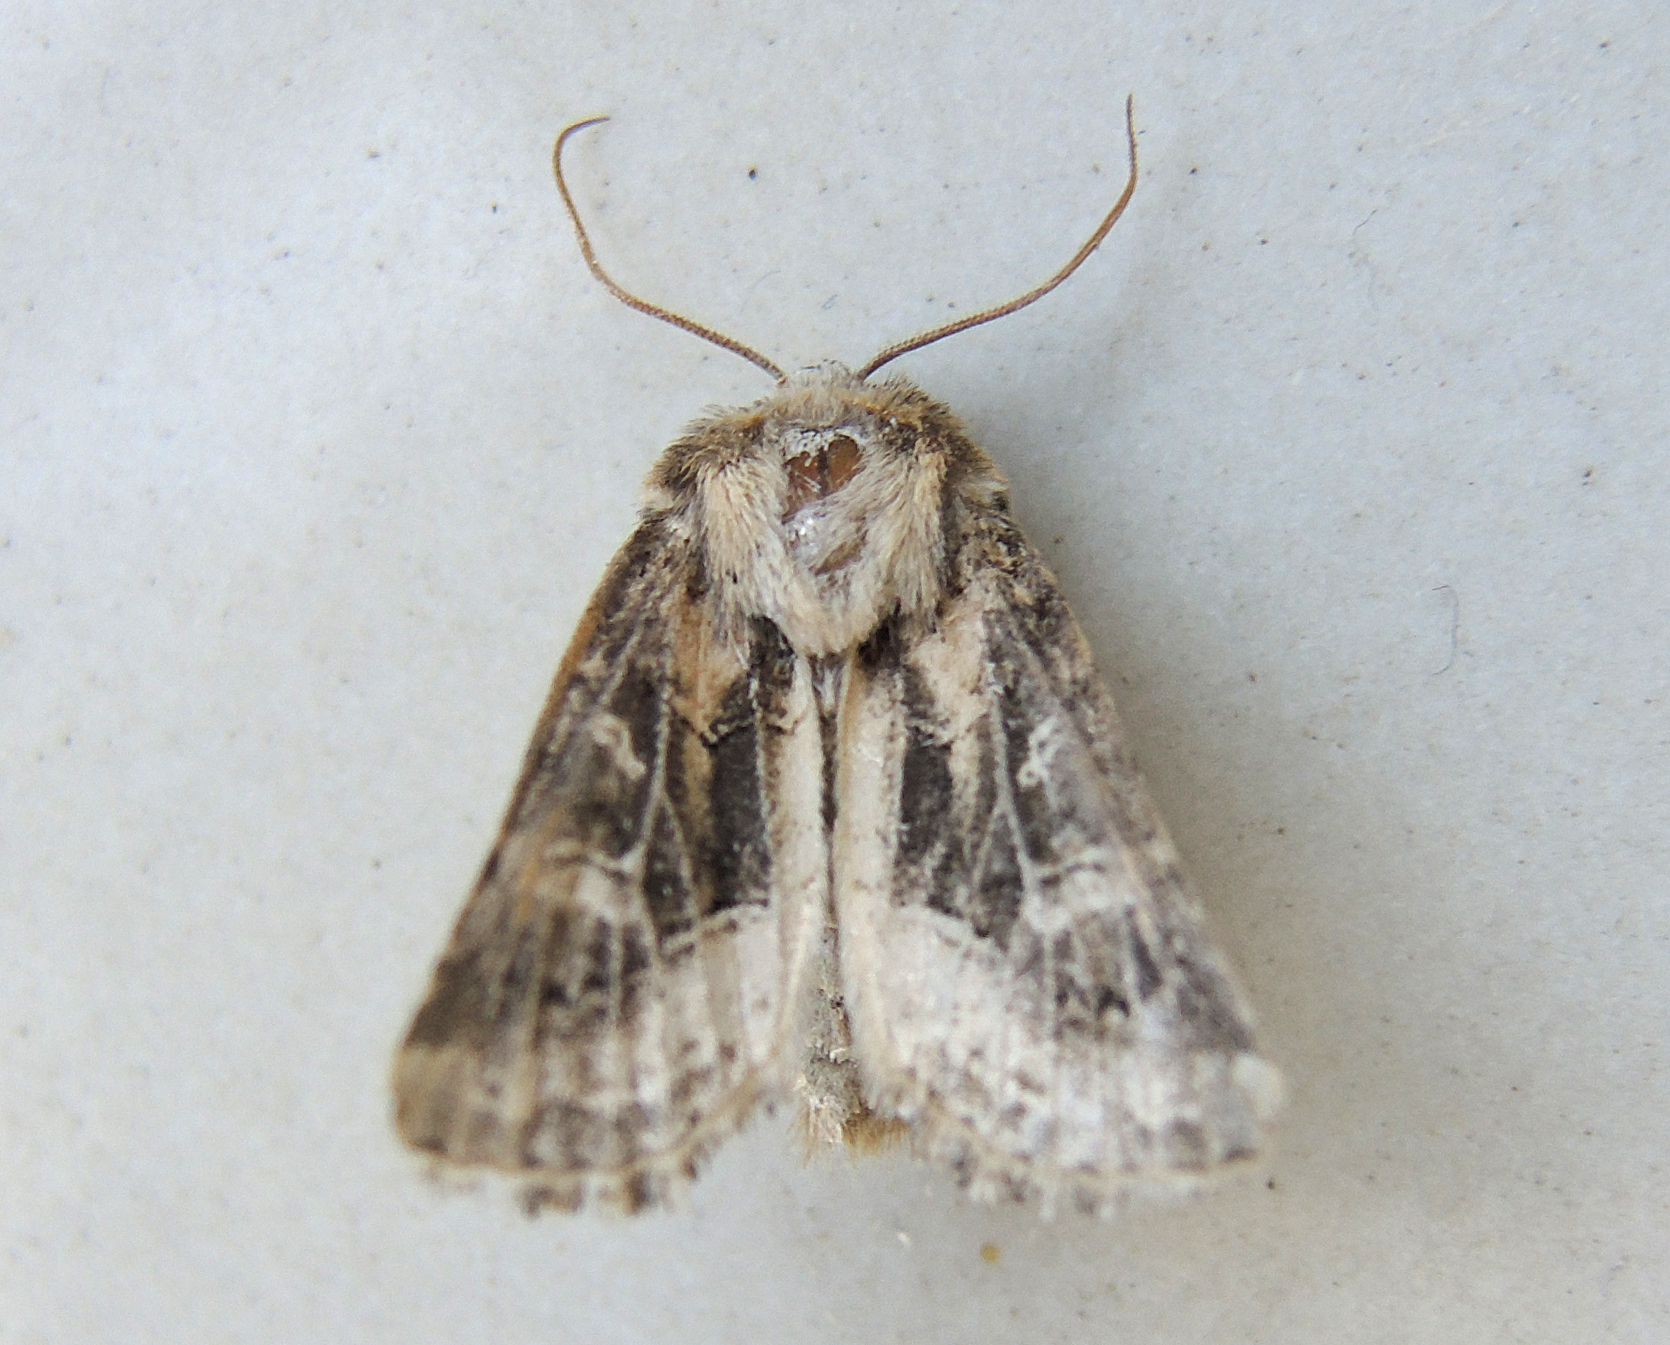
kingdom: Animalia
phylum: Arthropoda
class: Insecta
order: Lepidoptera
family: Noctuidae
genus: Luperina
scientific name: Luperina dumerilii
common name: Dumeril's rustic
